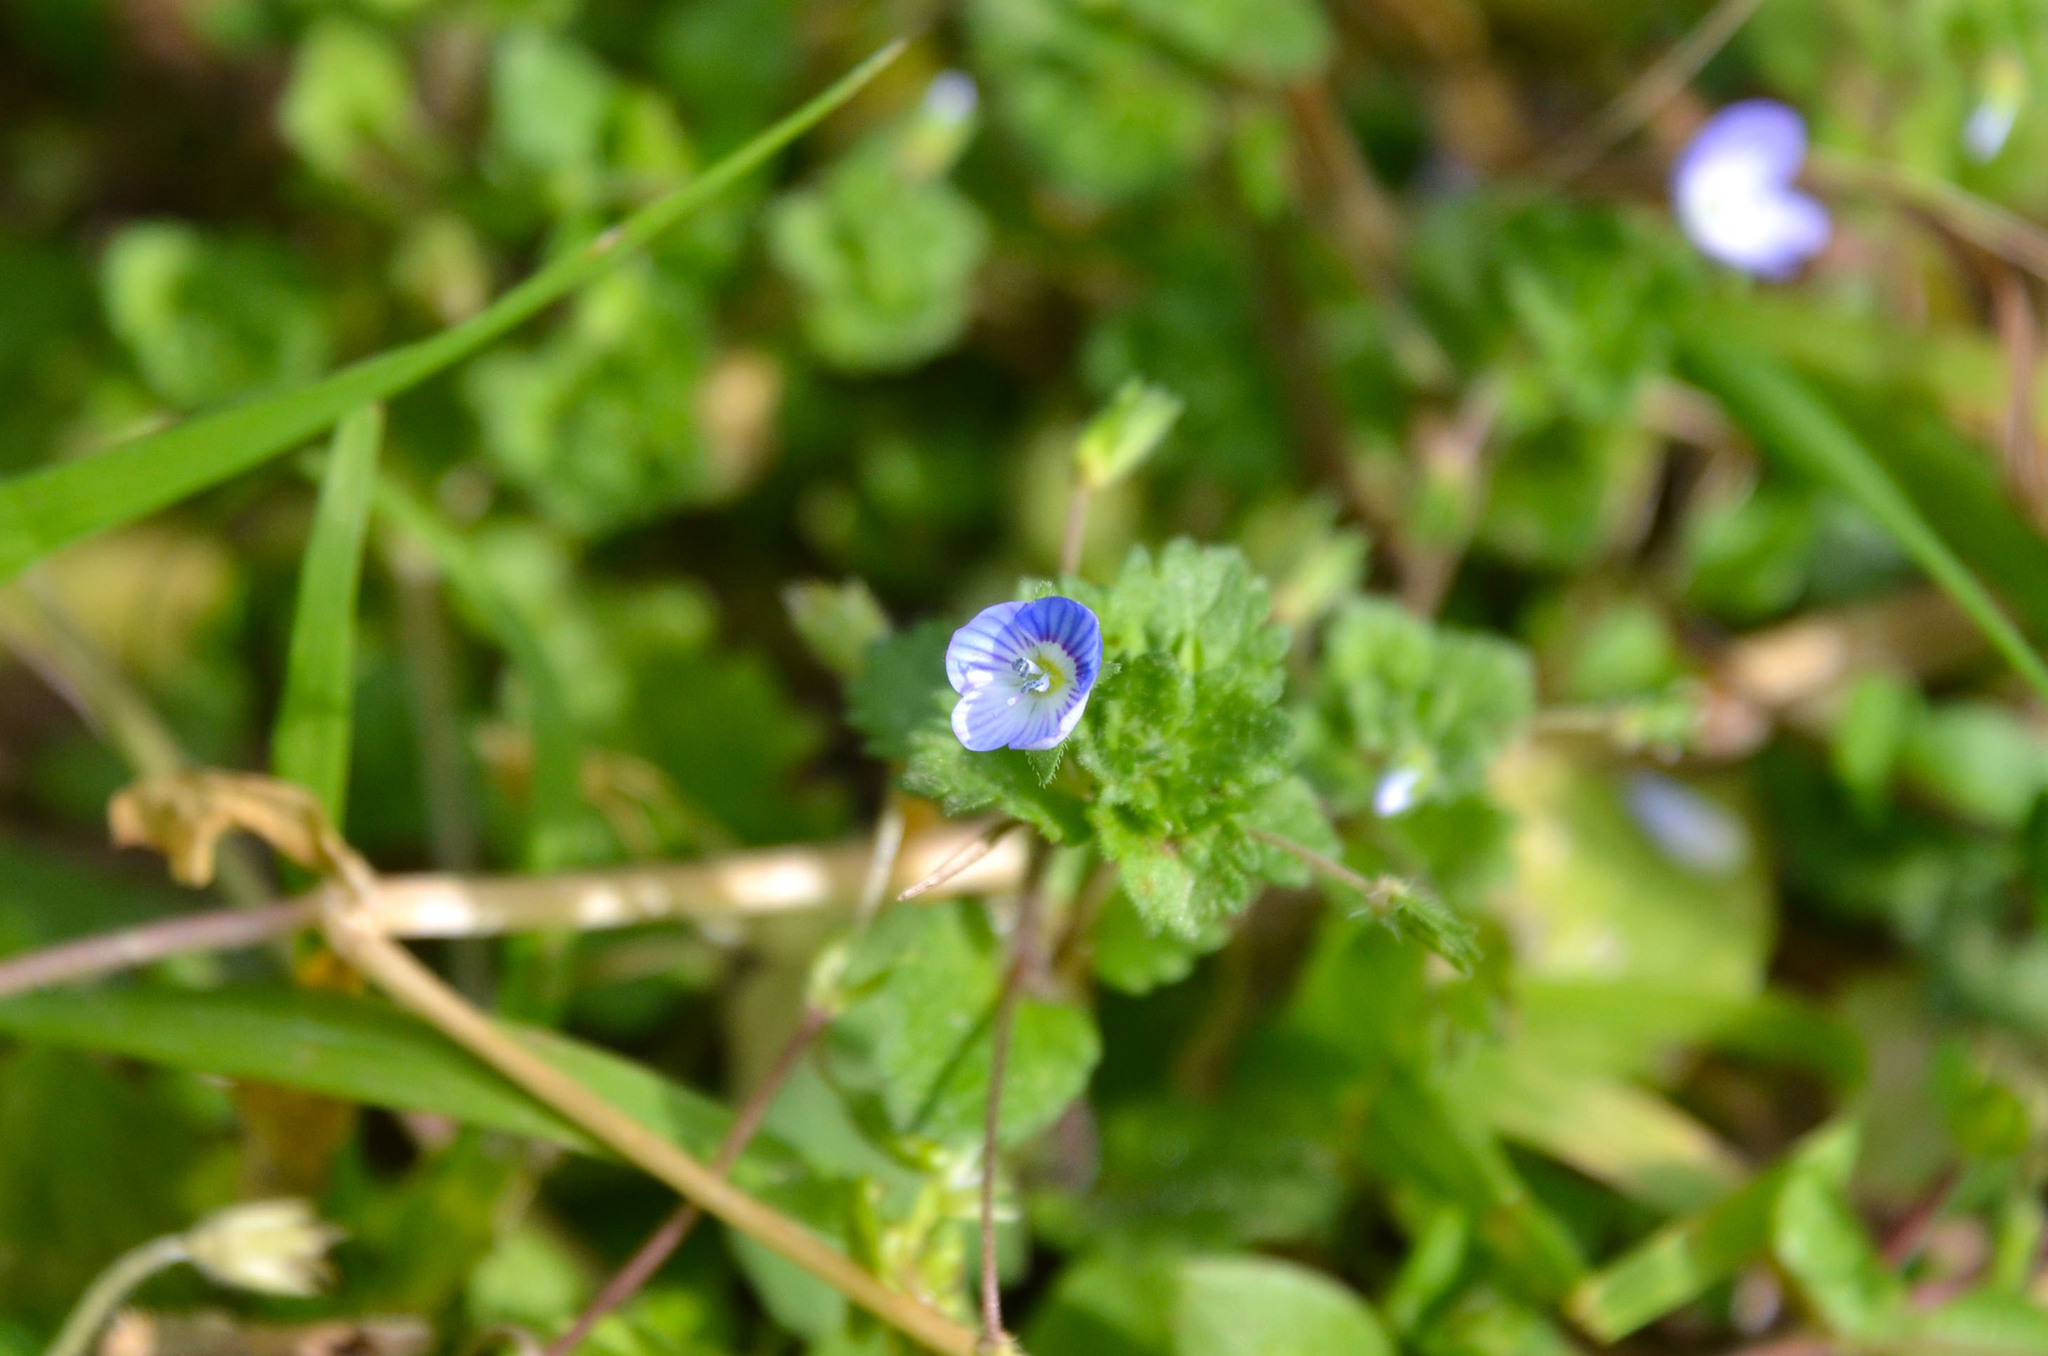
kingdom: Plantae
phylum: Tracheophyta
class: Magnoliopsida
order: Lamiales
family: Plantaginaceae
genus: Veronica
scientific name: Veronica persica
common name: Common field-speedwell
